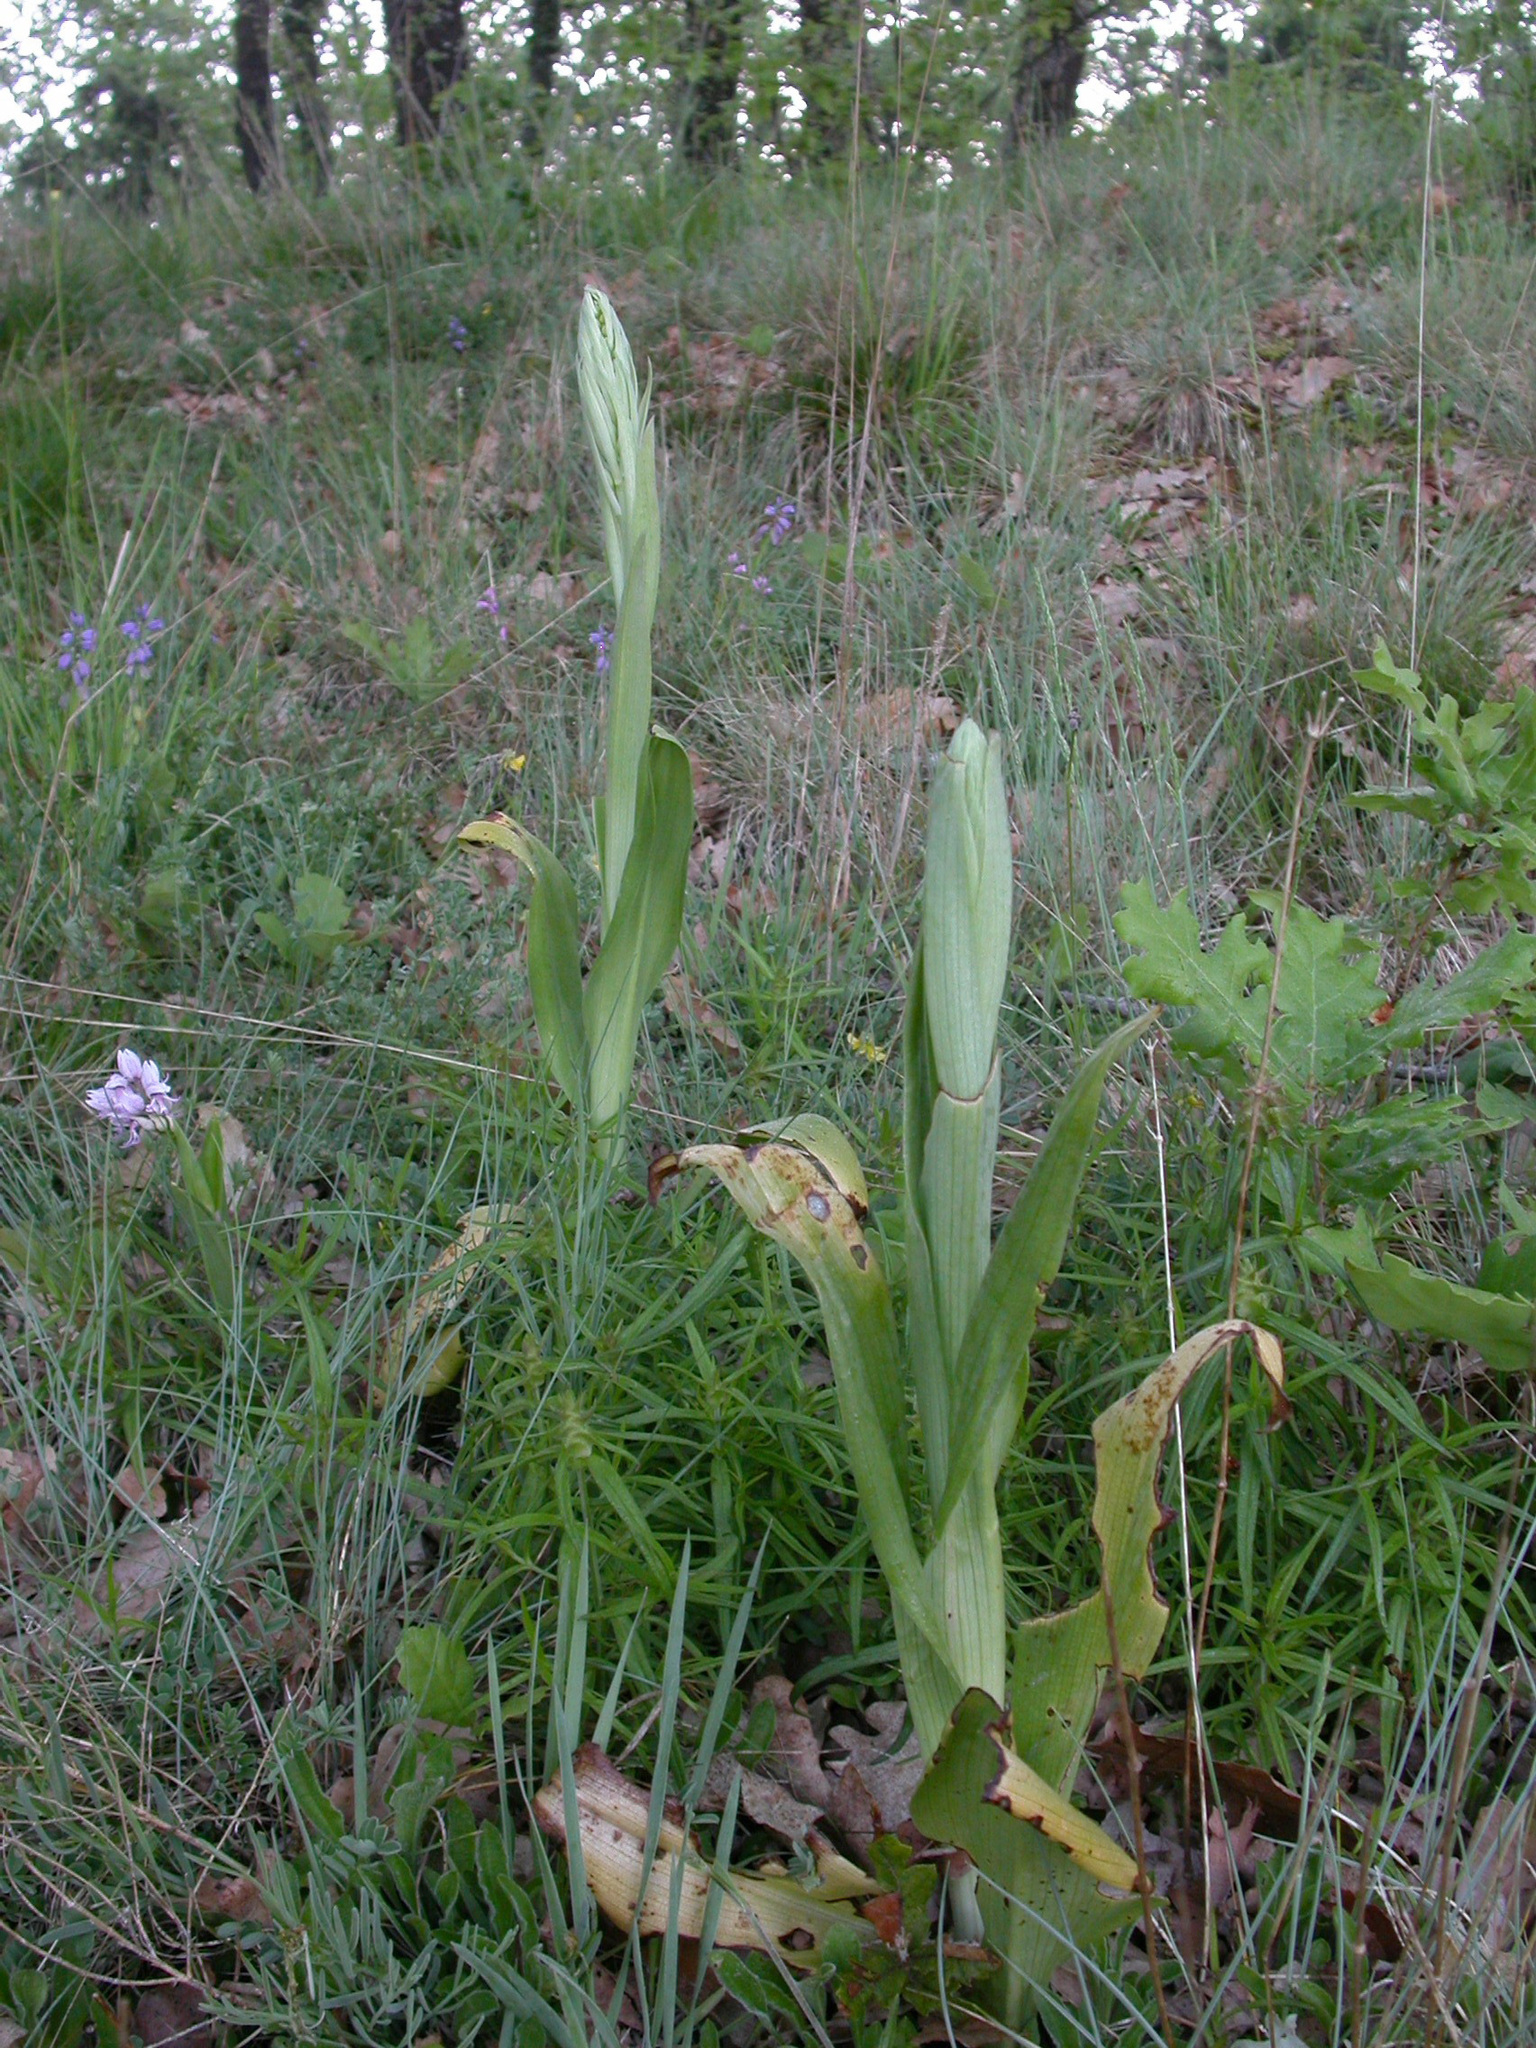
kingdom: Plantae
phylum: Tracheophyta
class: Liliopsida
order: Asparagales
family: Orchidaceae
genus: Himantoglossum
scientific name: Himantoglossum hircinum
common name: Lizard orchid
